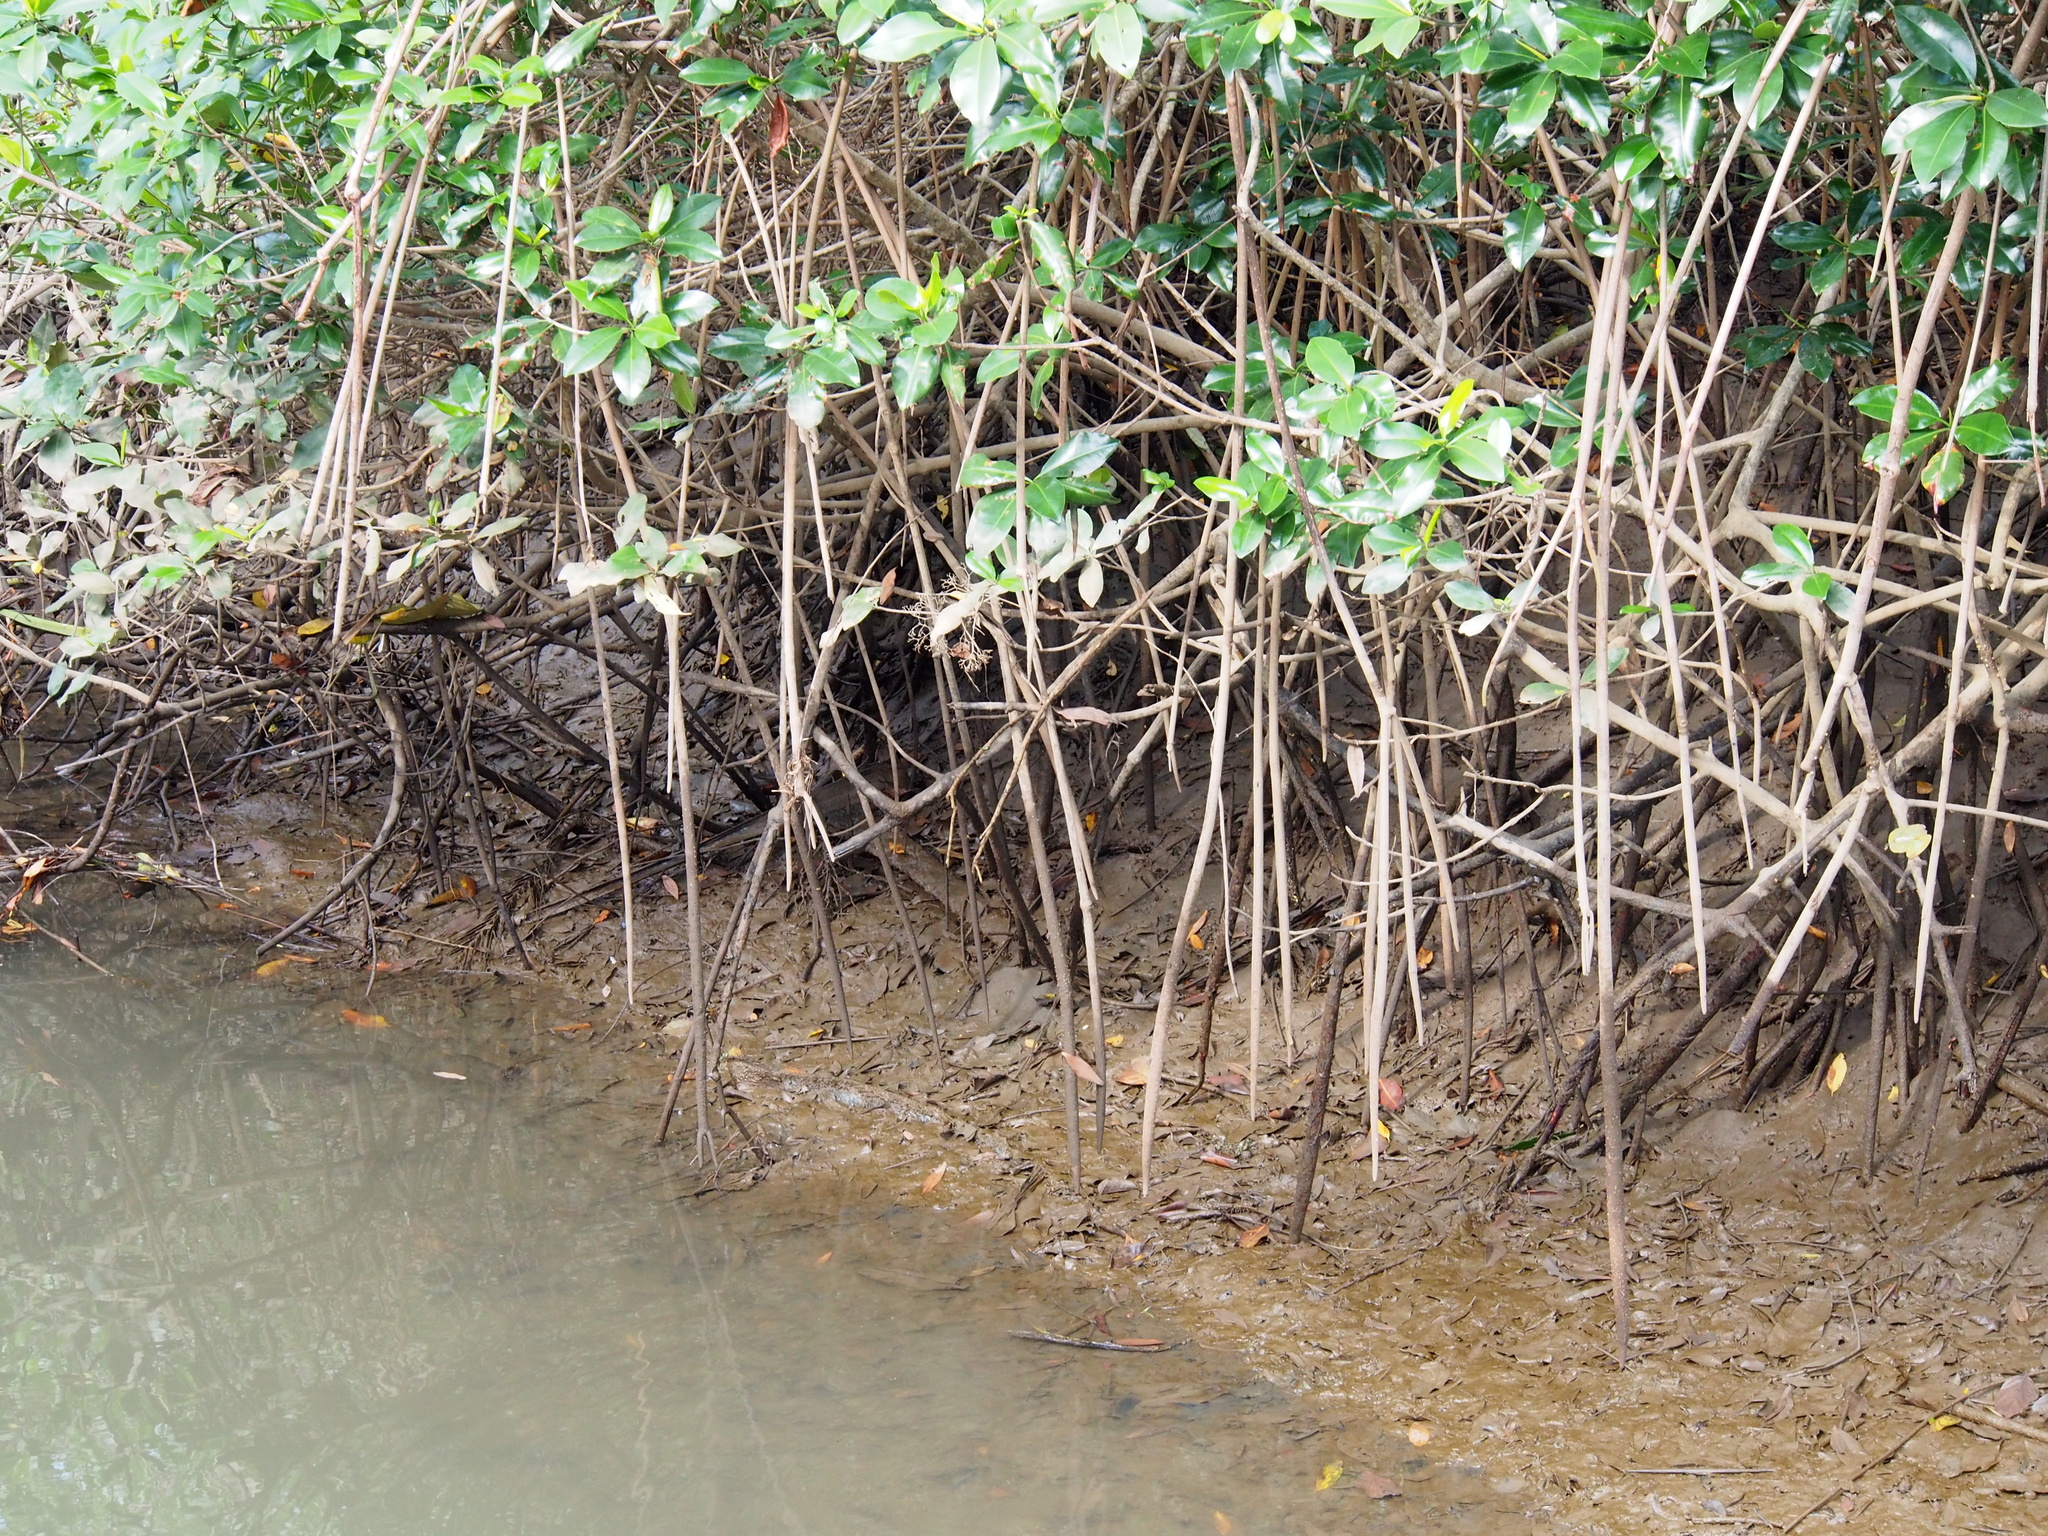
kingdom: Plantae
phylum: Tracheophyta
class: Magnoliopsida
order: Malpighiales
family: Rhizophoraceae
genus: Rhizophora
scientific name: Rhizophora mangle
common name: Red mangrove
